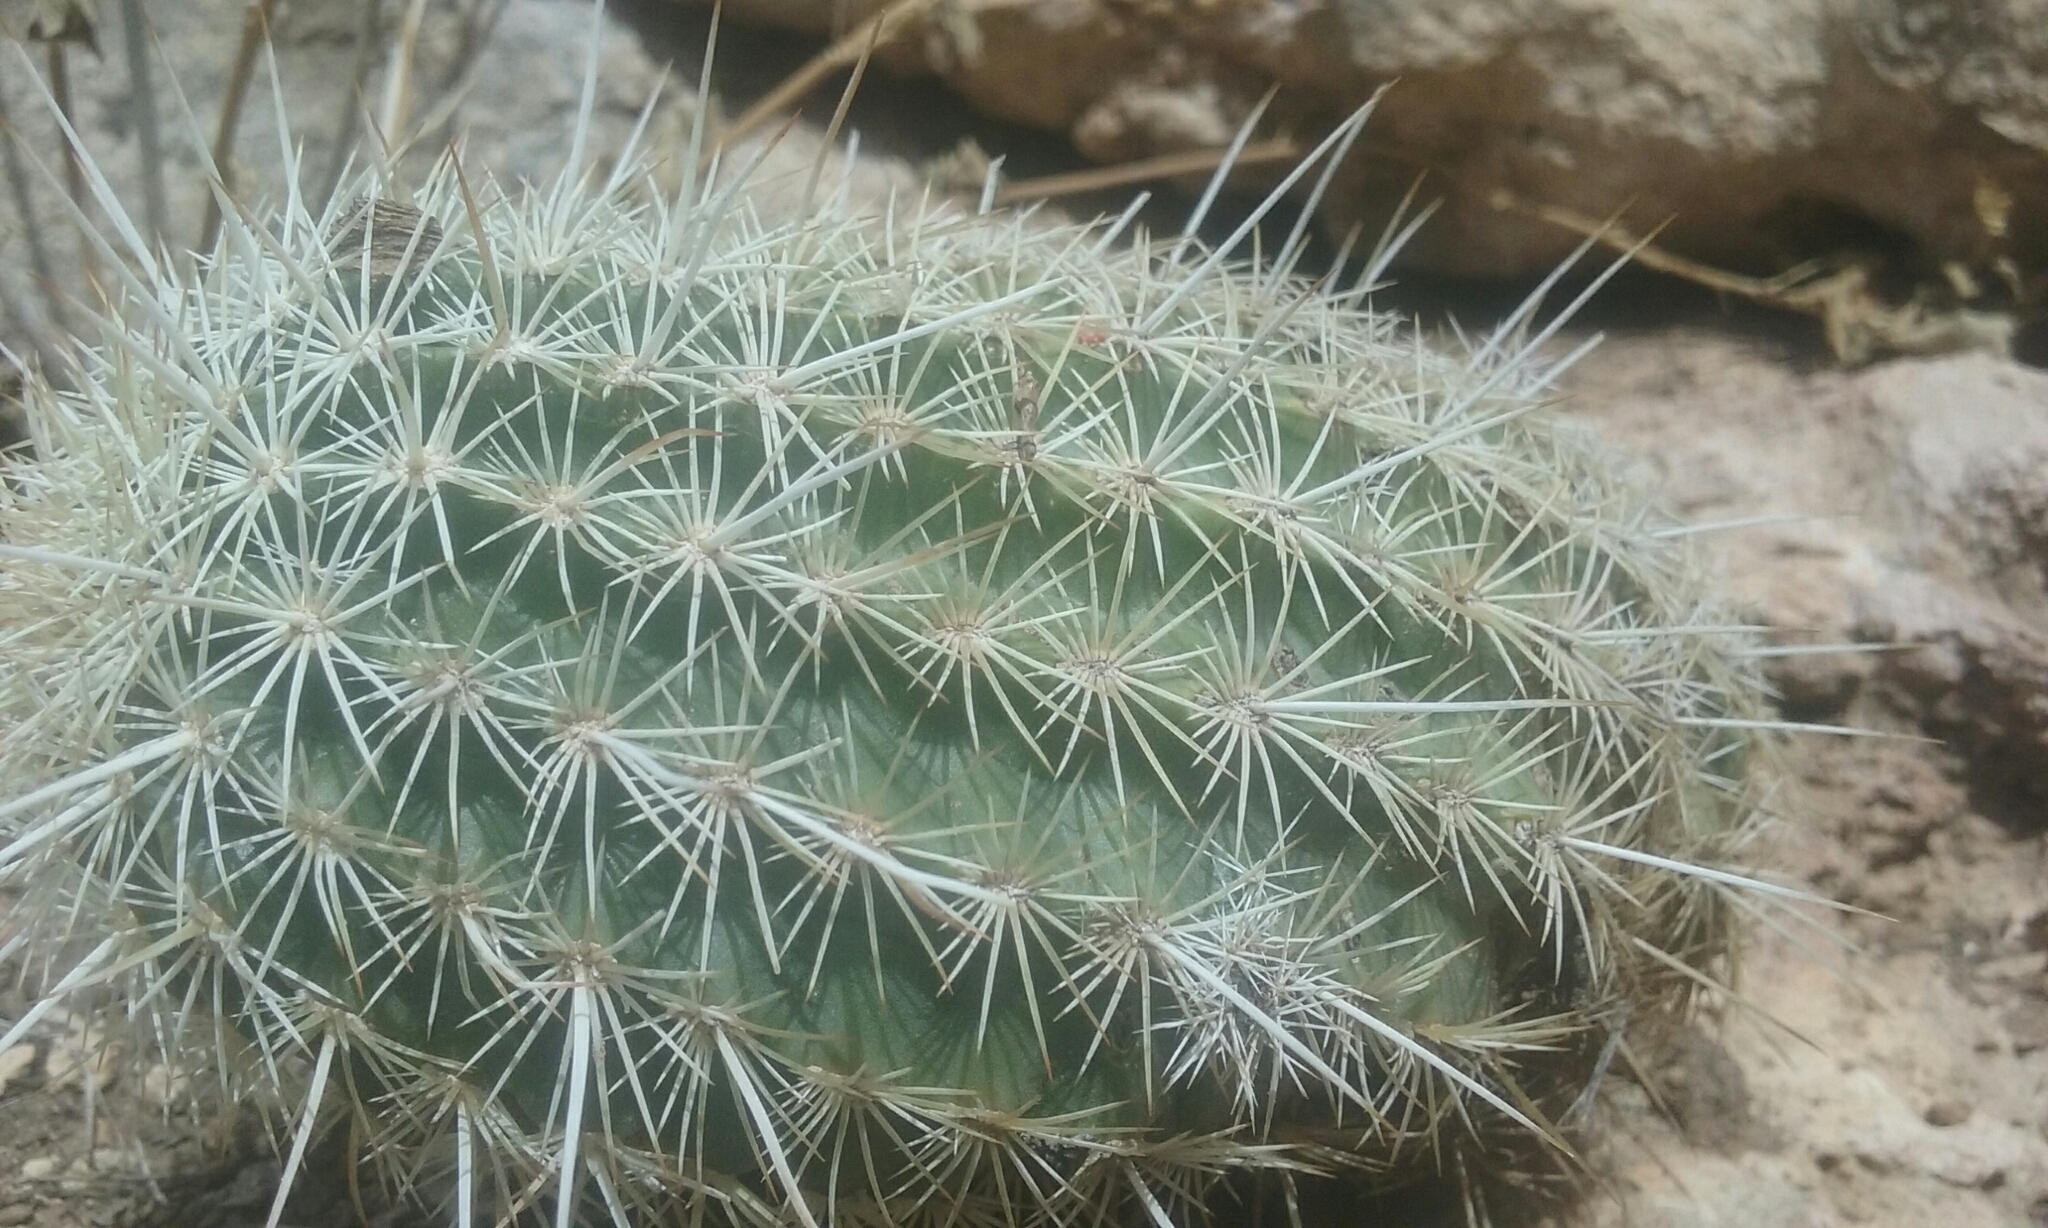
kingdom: Plantae
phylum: Tracheophyta
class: Magnoliopsida
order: Caryophyllales
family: Cactaceae
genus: Echinocereus
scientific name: Echinocereus viridiflorus
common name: Nylon hedgehog cactus
